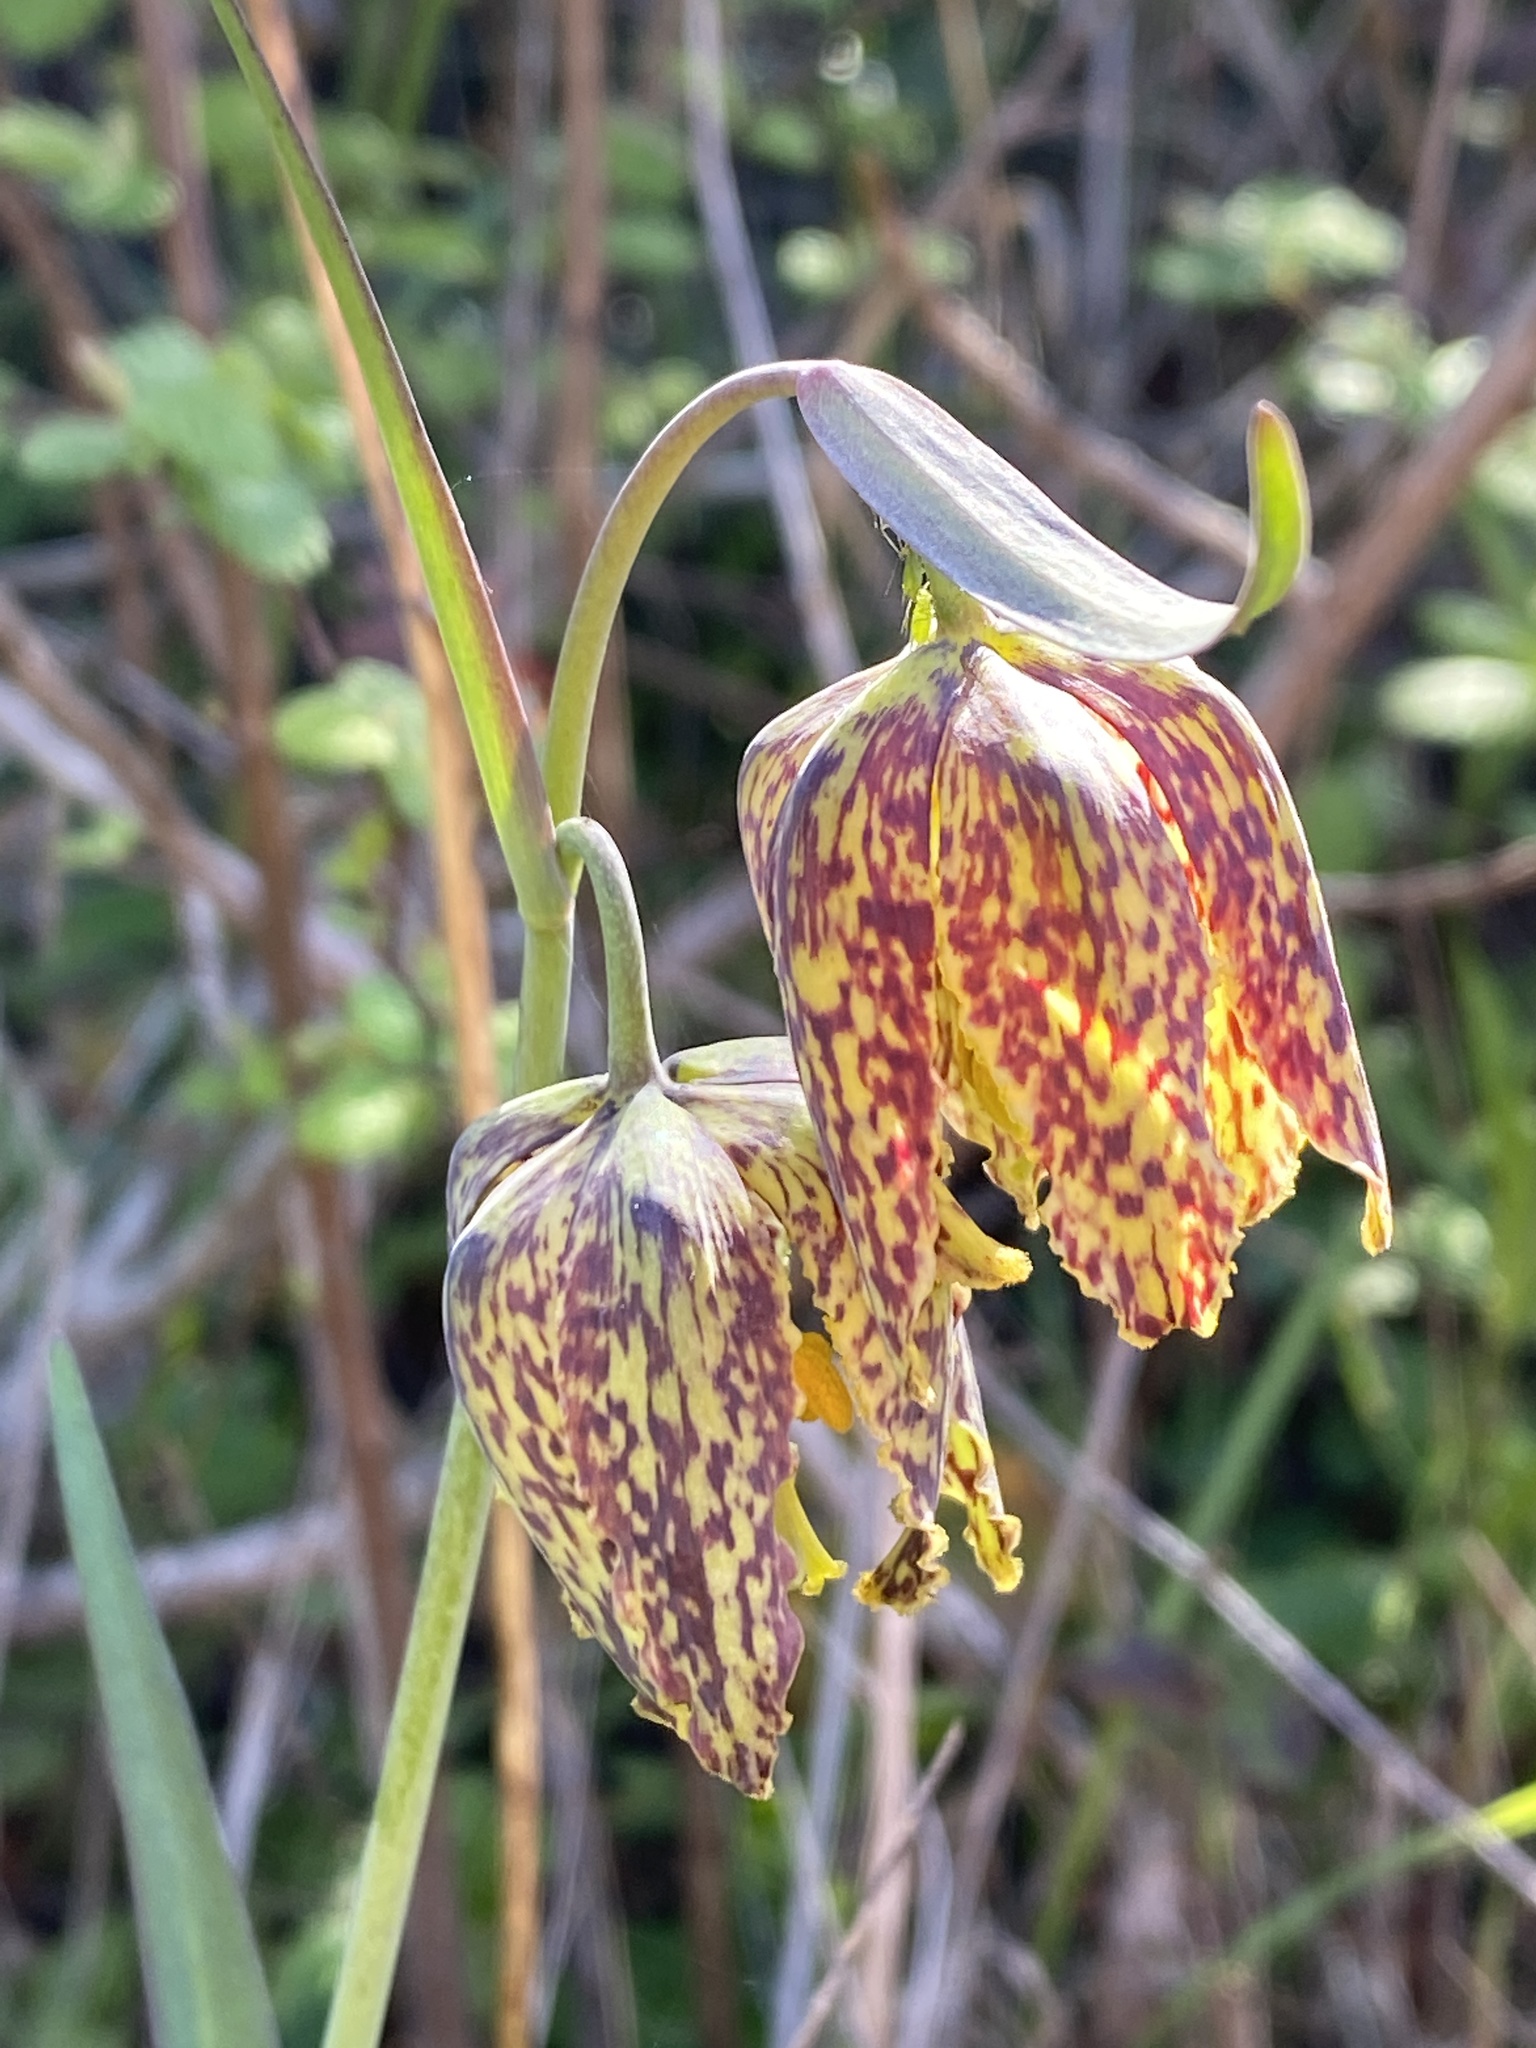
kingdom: Plantae
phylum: Tracheophyta
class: Liliopsida
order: Liliales
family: Liliaceae
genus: Fritillaria
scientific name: Fritillaria affinis
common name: Ojai fritillary
